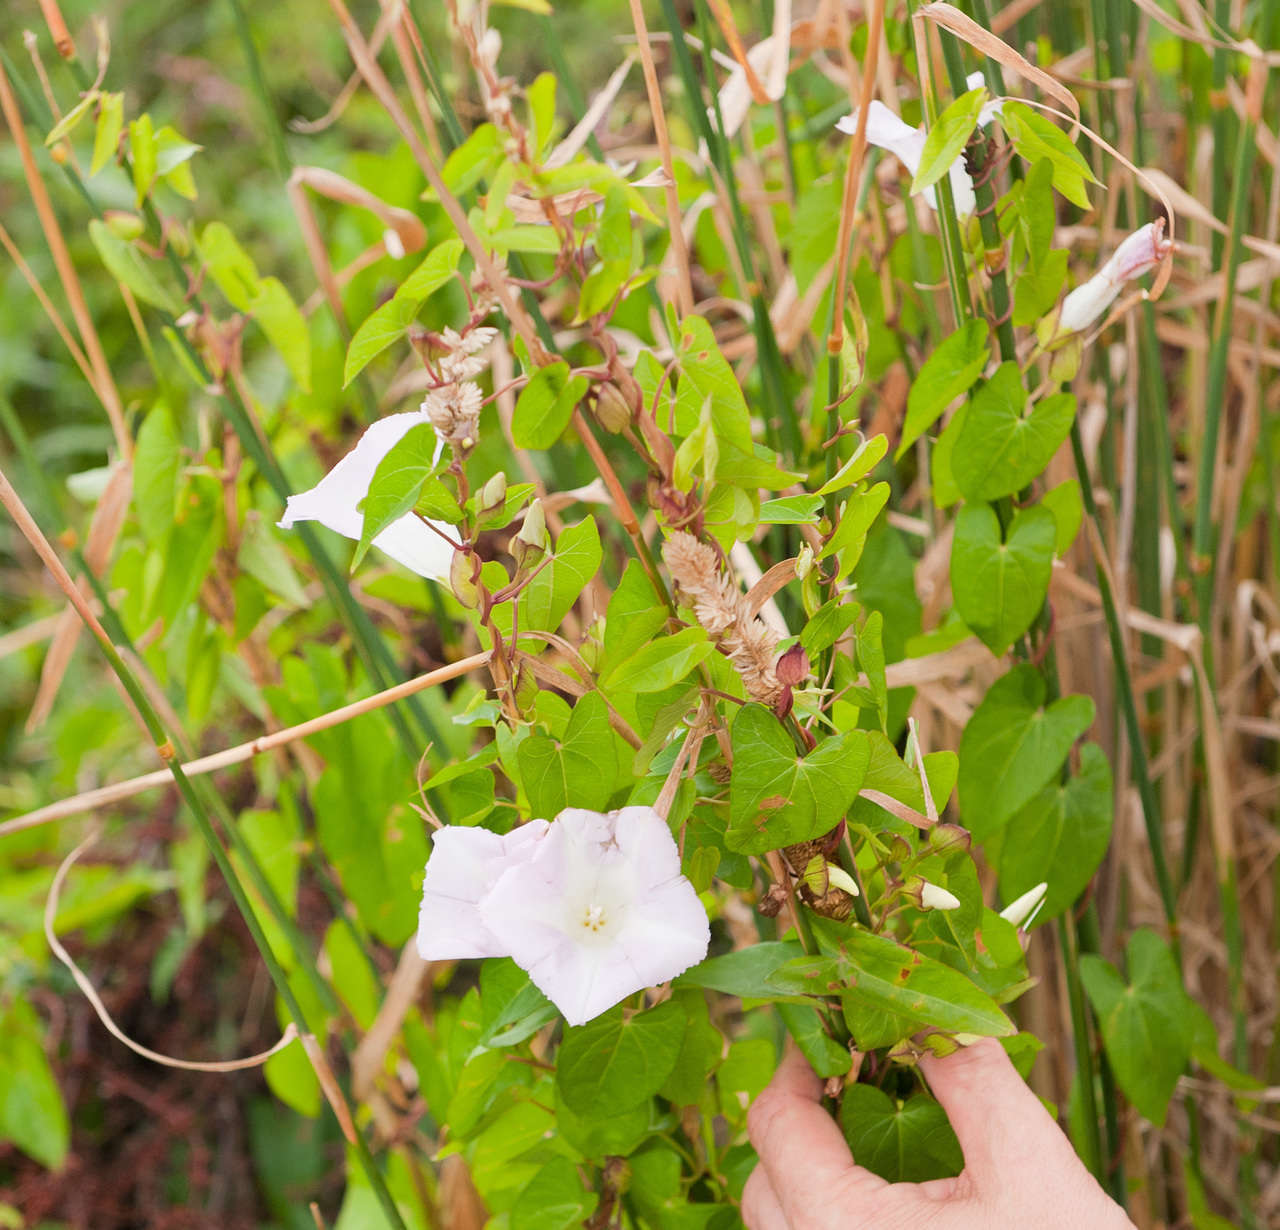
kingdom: Plantae
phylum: Tracheophyta
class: Magnoliopsida
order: Solanales
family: Convolvulaceae
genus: Calystegia
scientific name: Calystegia sepium
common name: Hedge bindweed
